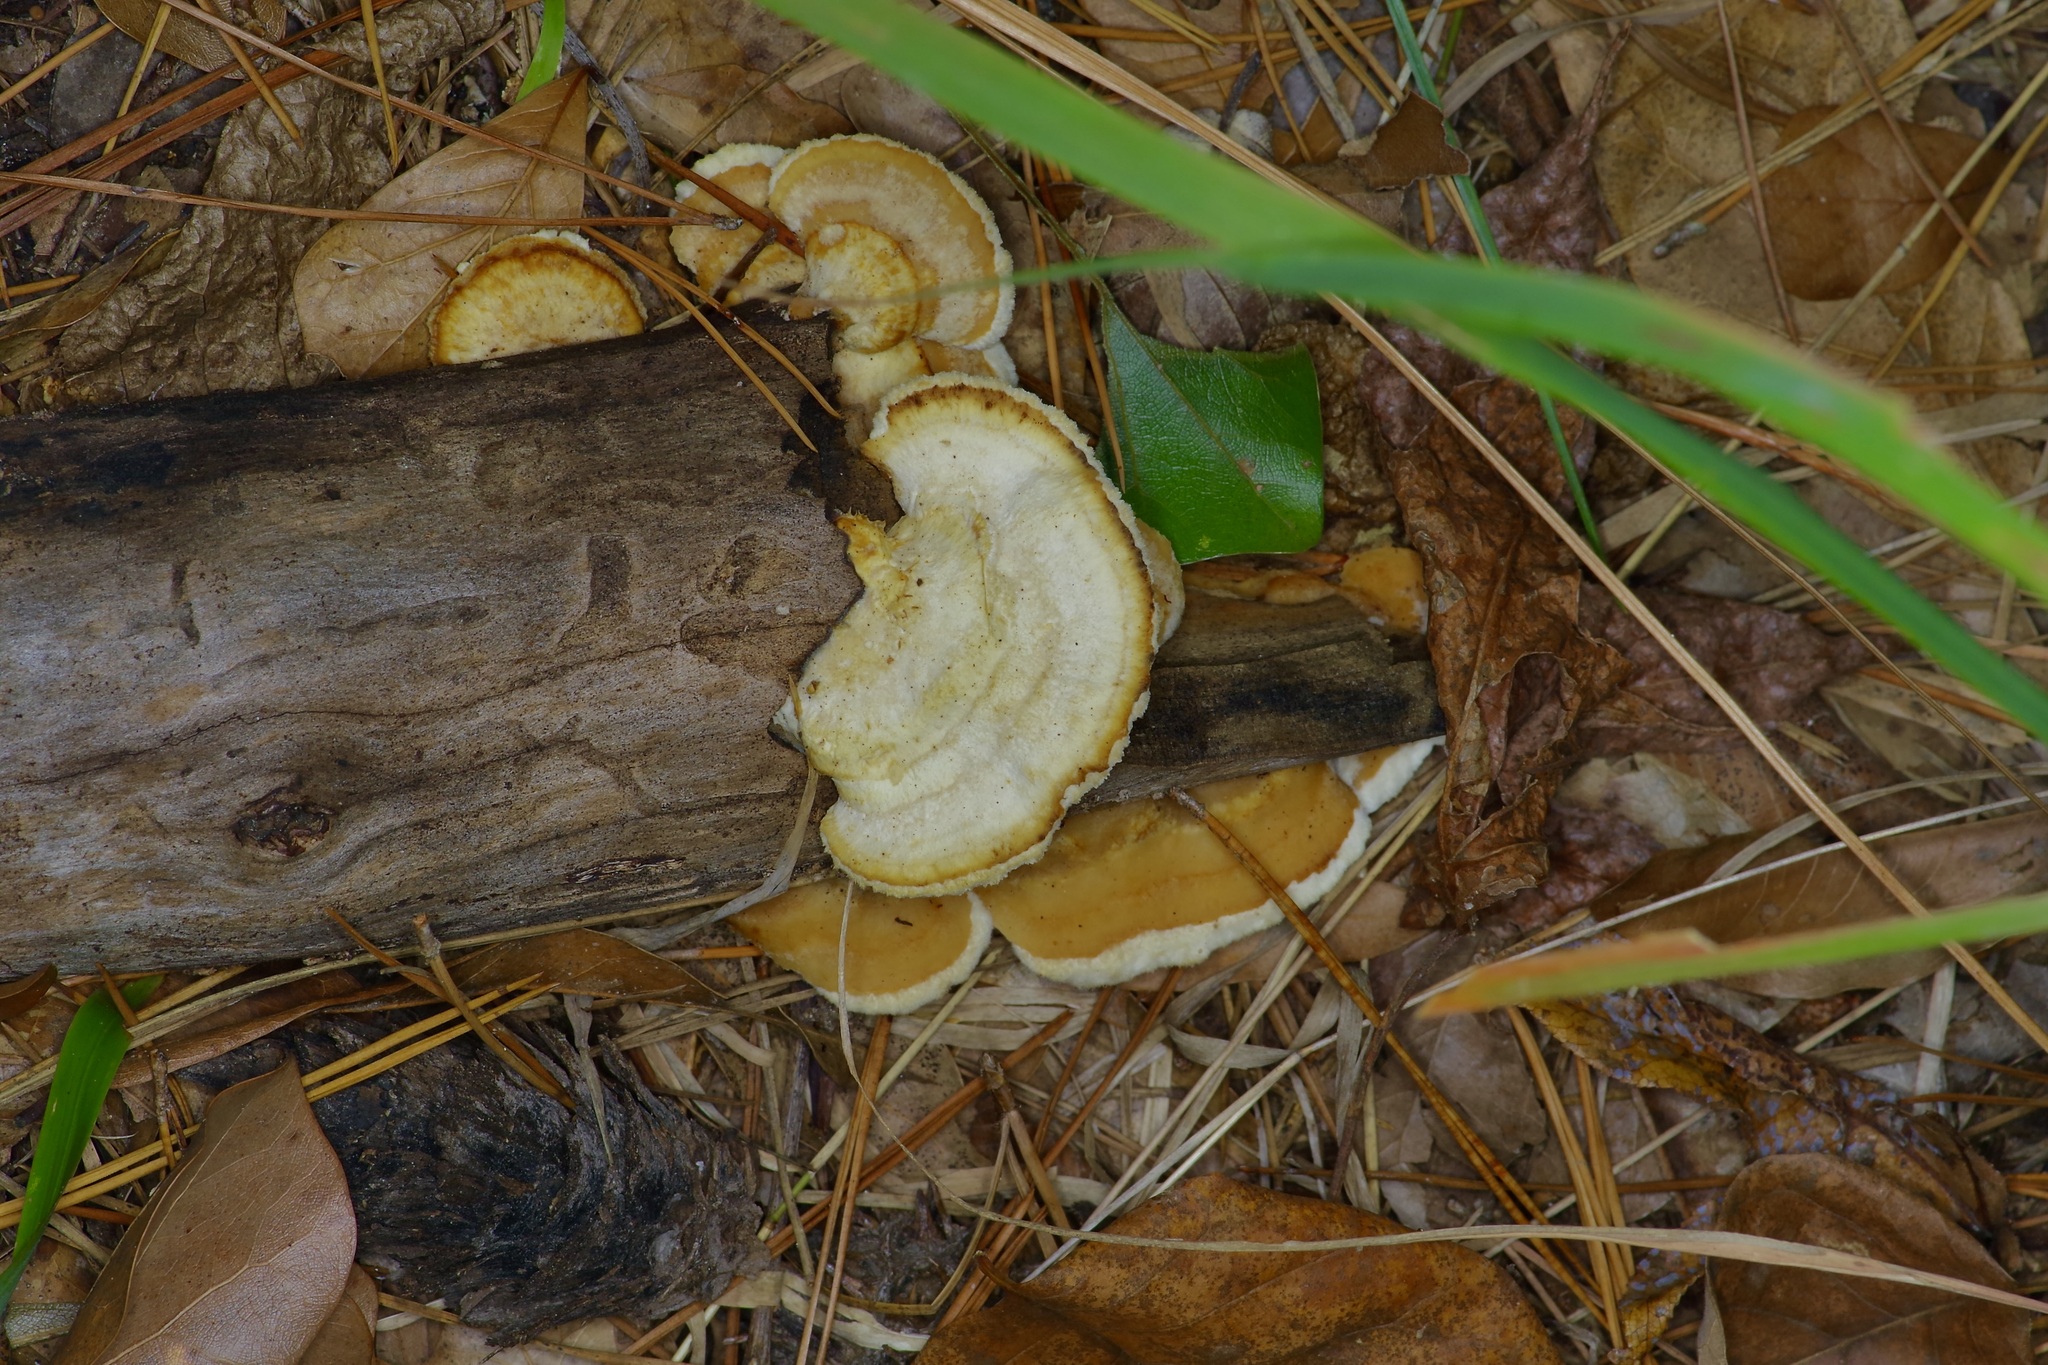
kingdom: Fungi
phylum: Basidiomycota
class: Agaricomycetes
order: Polyporales
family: Irpicaceae
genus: Trametopsis
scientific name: Trametopsis cervina
